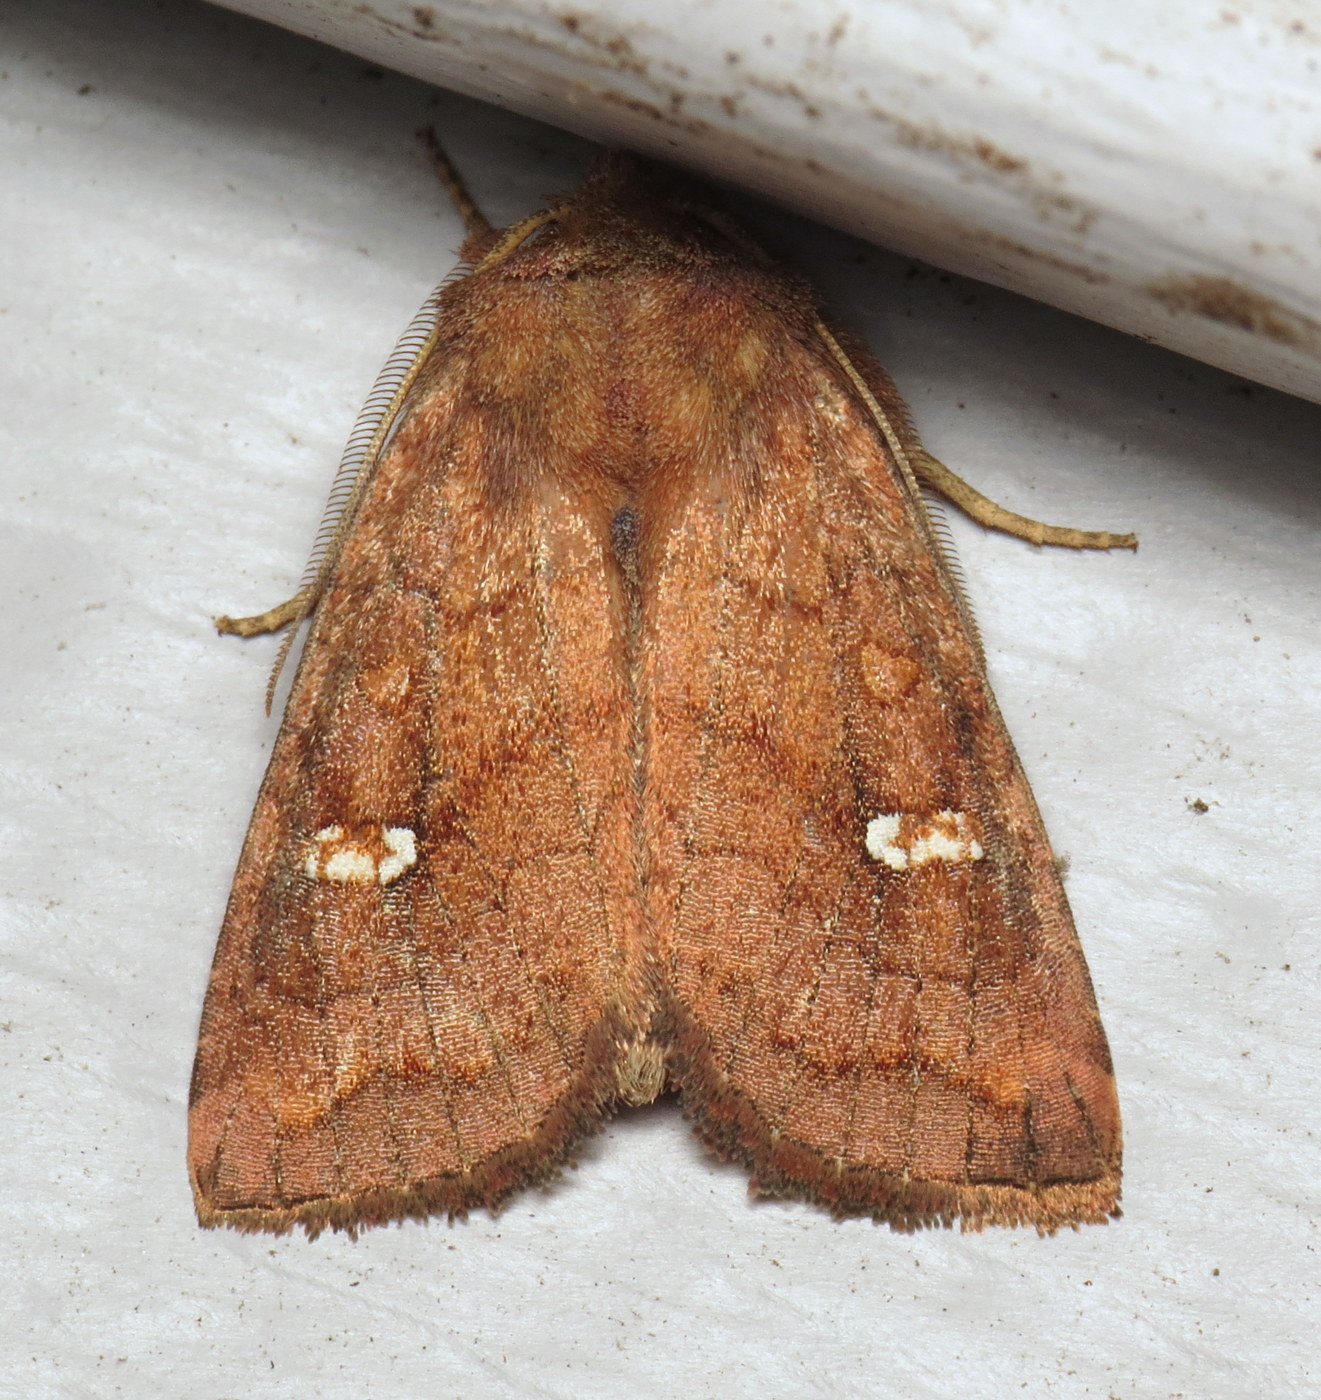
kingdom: Animalia
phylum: Arthropoda
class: Insecta
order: Lepidoptera
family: Noctuidae
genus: Tricholita
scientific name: Tricholita signata
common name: Signate quaker
